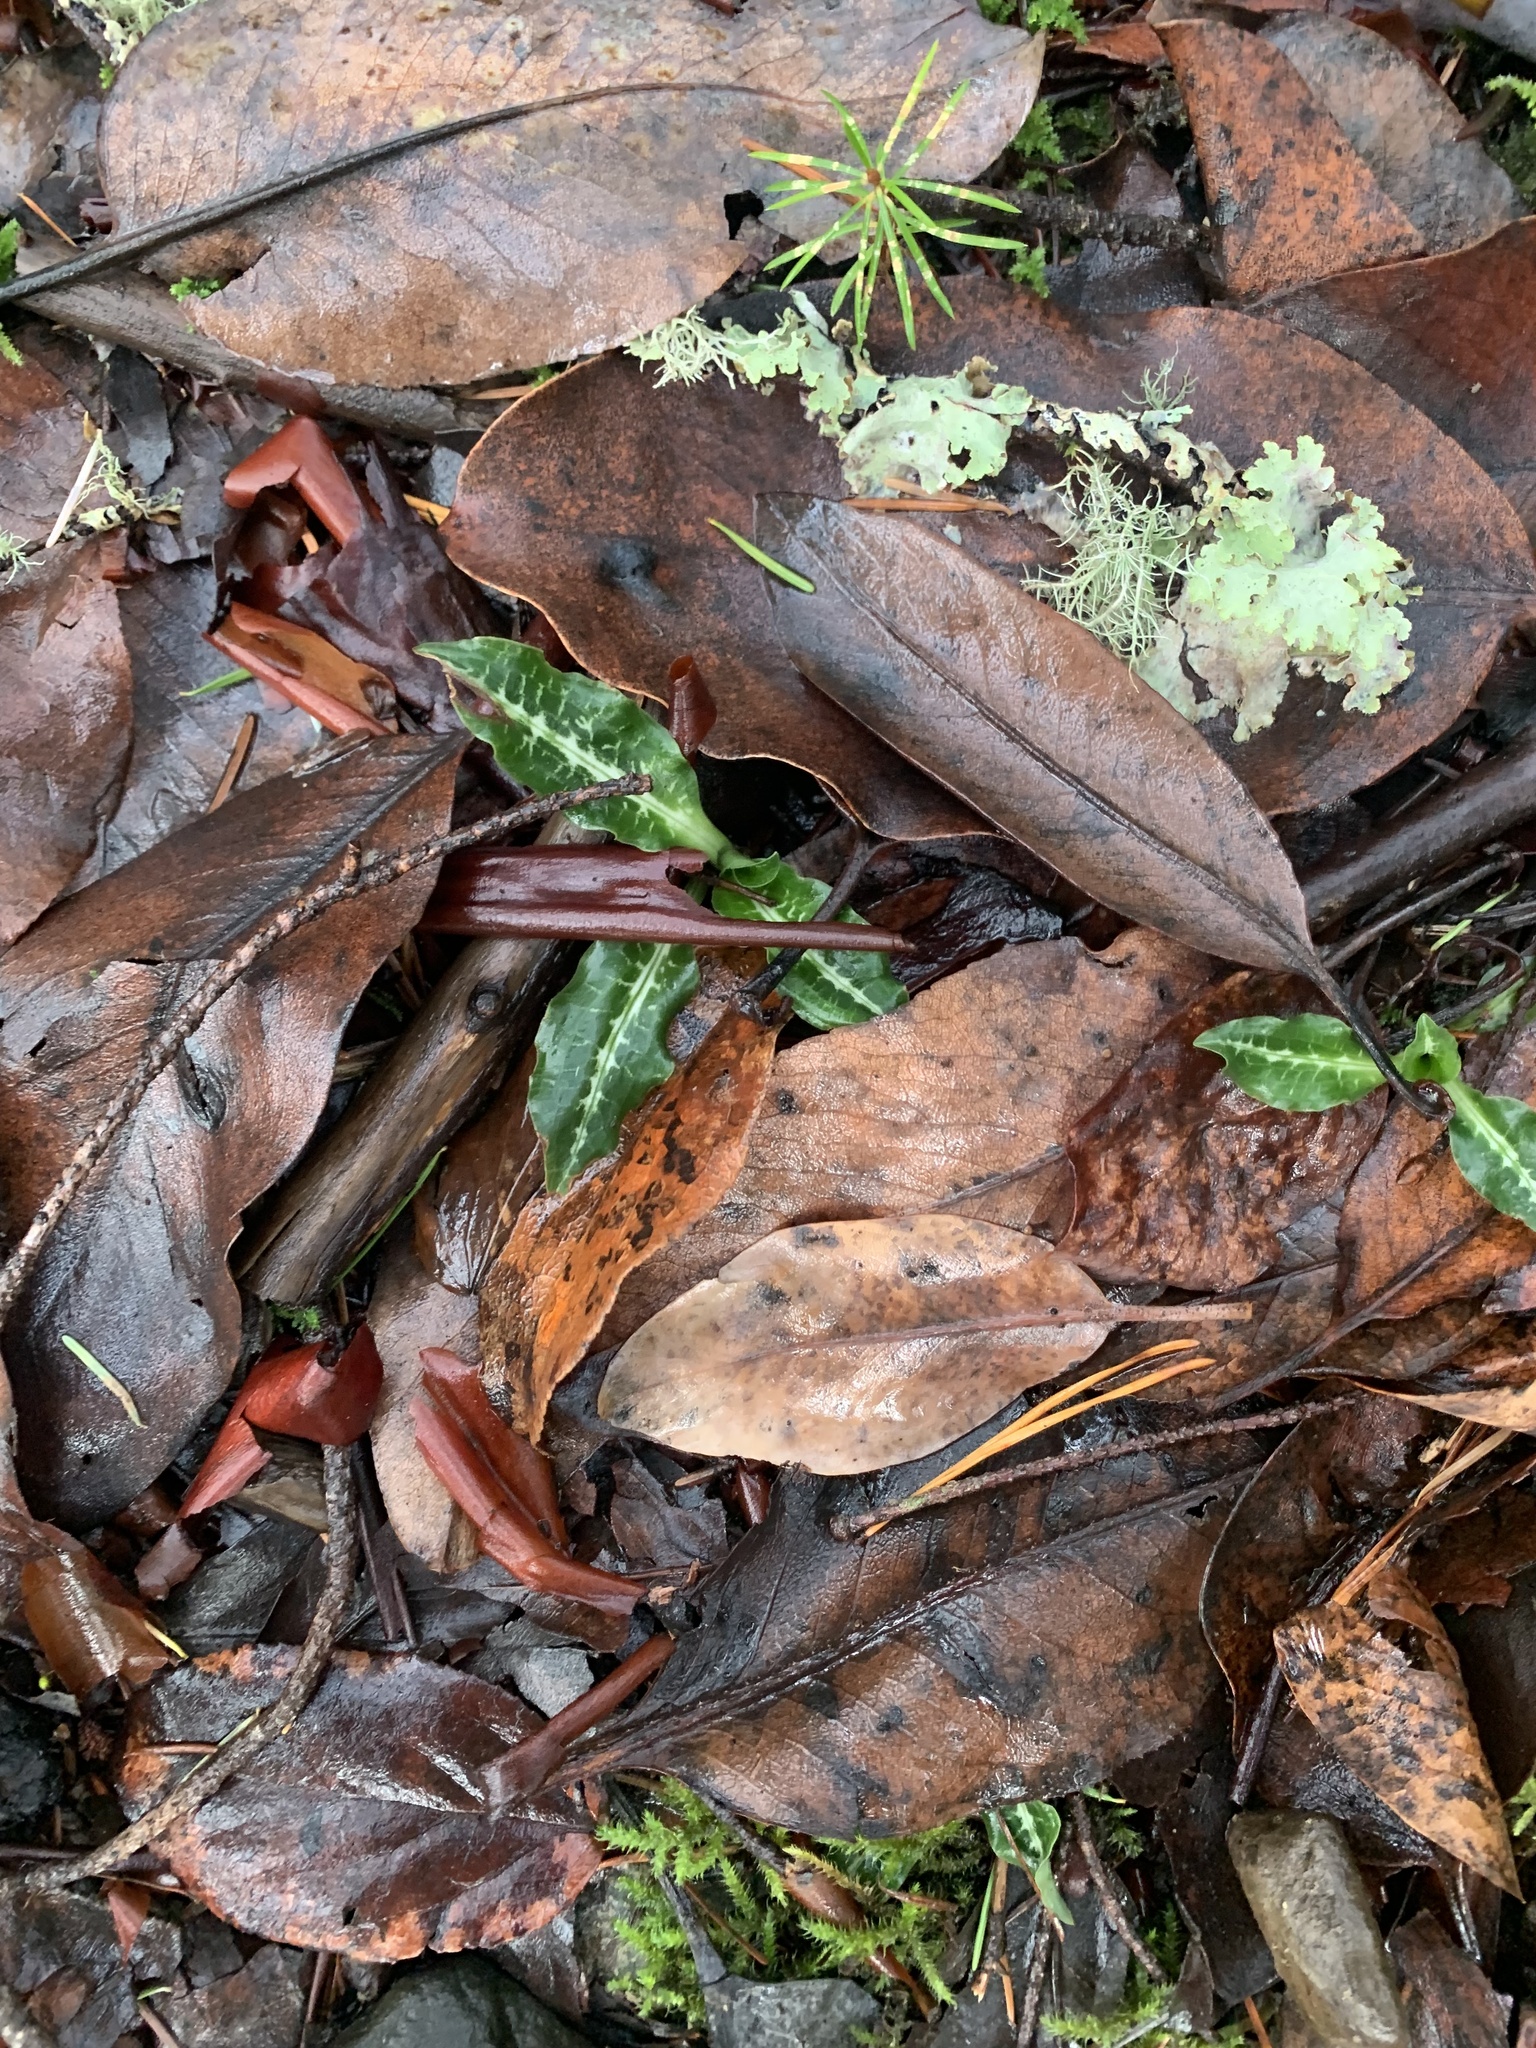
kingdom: Plantae
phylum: Tracheophyta
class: Liliopsida
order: Asparagales
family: Orchidaceae
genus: Goodyera
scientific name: Goodyera oblongifolia
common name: Giant rattlesnake-plantain
